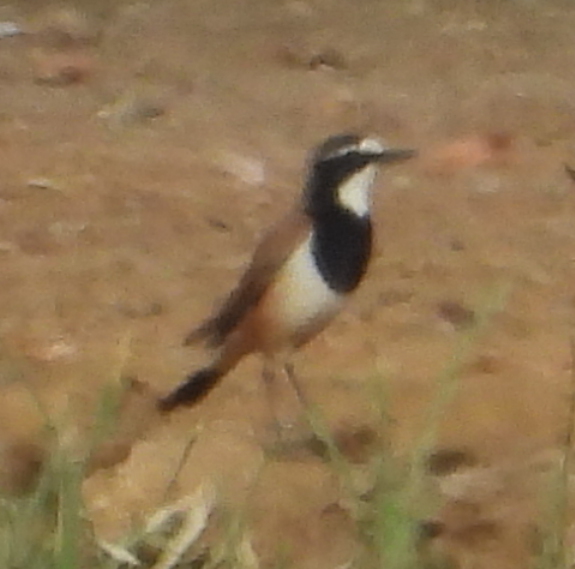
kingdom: Animalia
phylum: Chordata
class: Aves
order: Passeriformes
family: Muscicapidae
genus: Oenanthe
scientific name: Oenanthe pileata
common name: Capped wheatear
